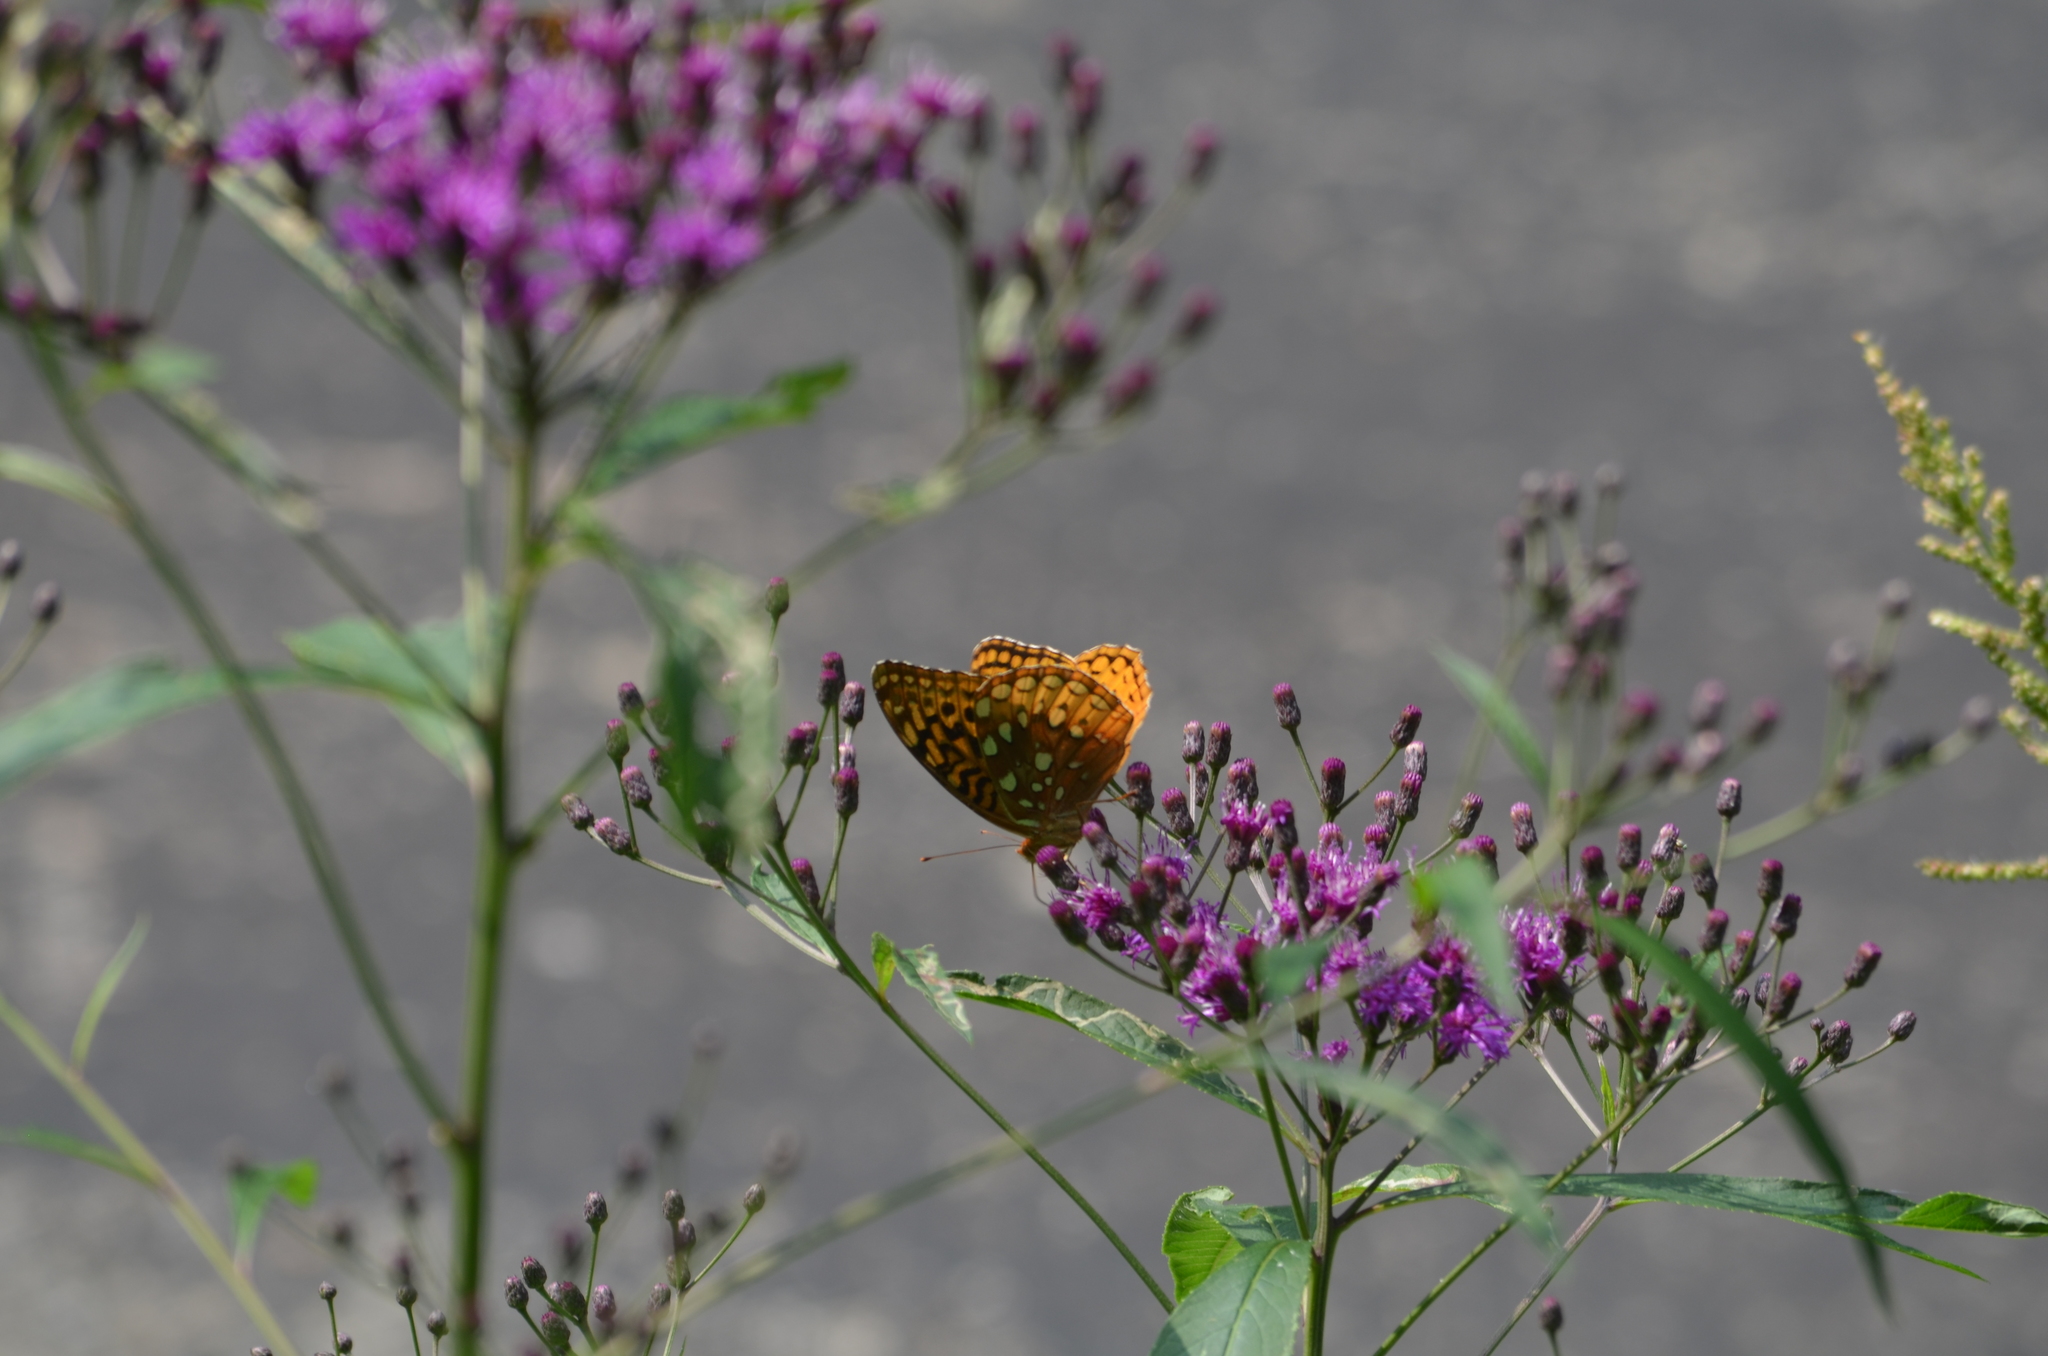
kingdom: Animalia
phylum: Arthropoda
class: Insecta
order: Lepidoptera
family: Nymphalidae
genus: Speyeria
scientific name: Speyeria cybele
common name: Great spangled fritillary
